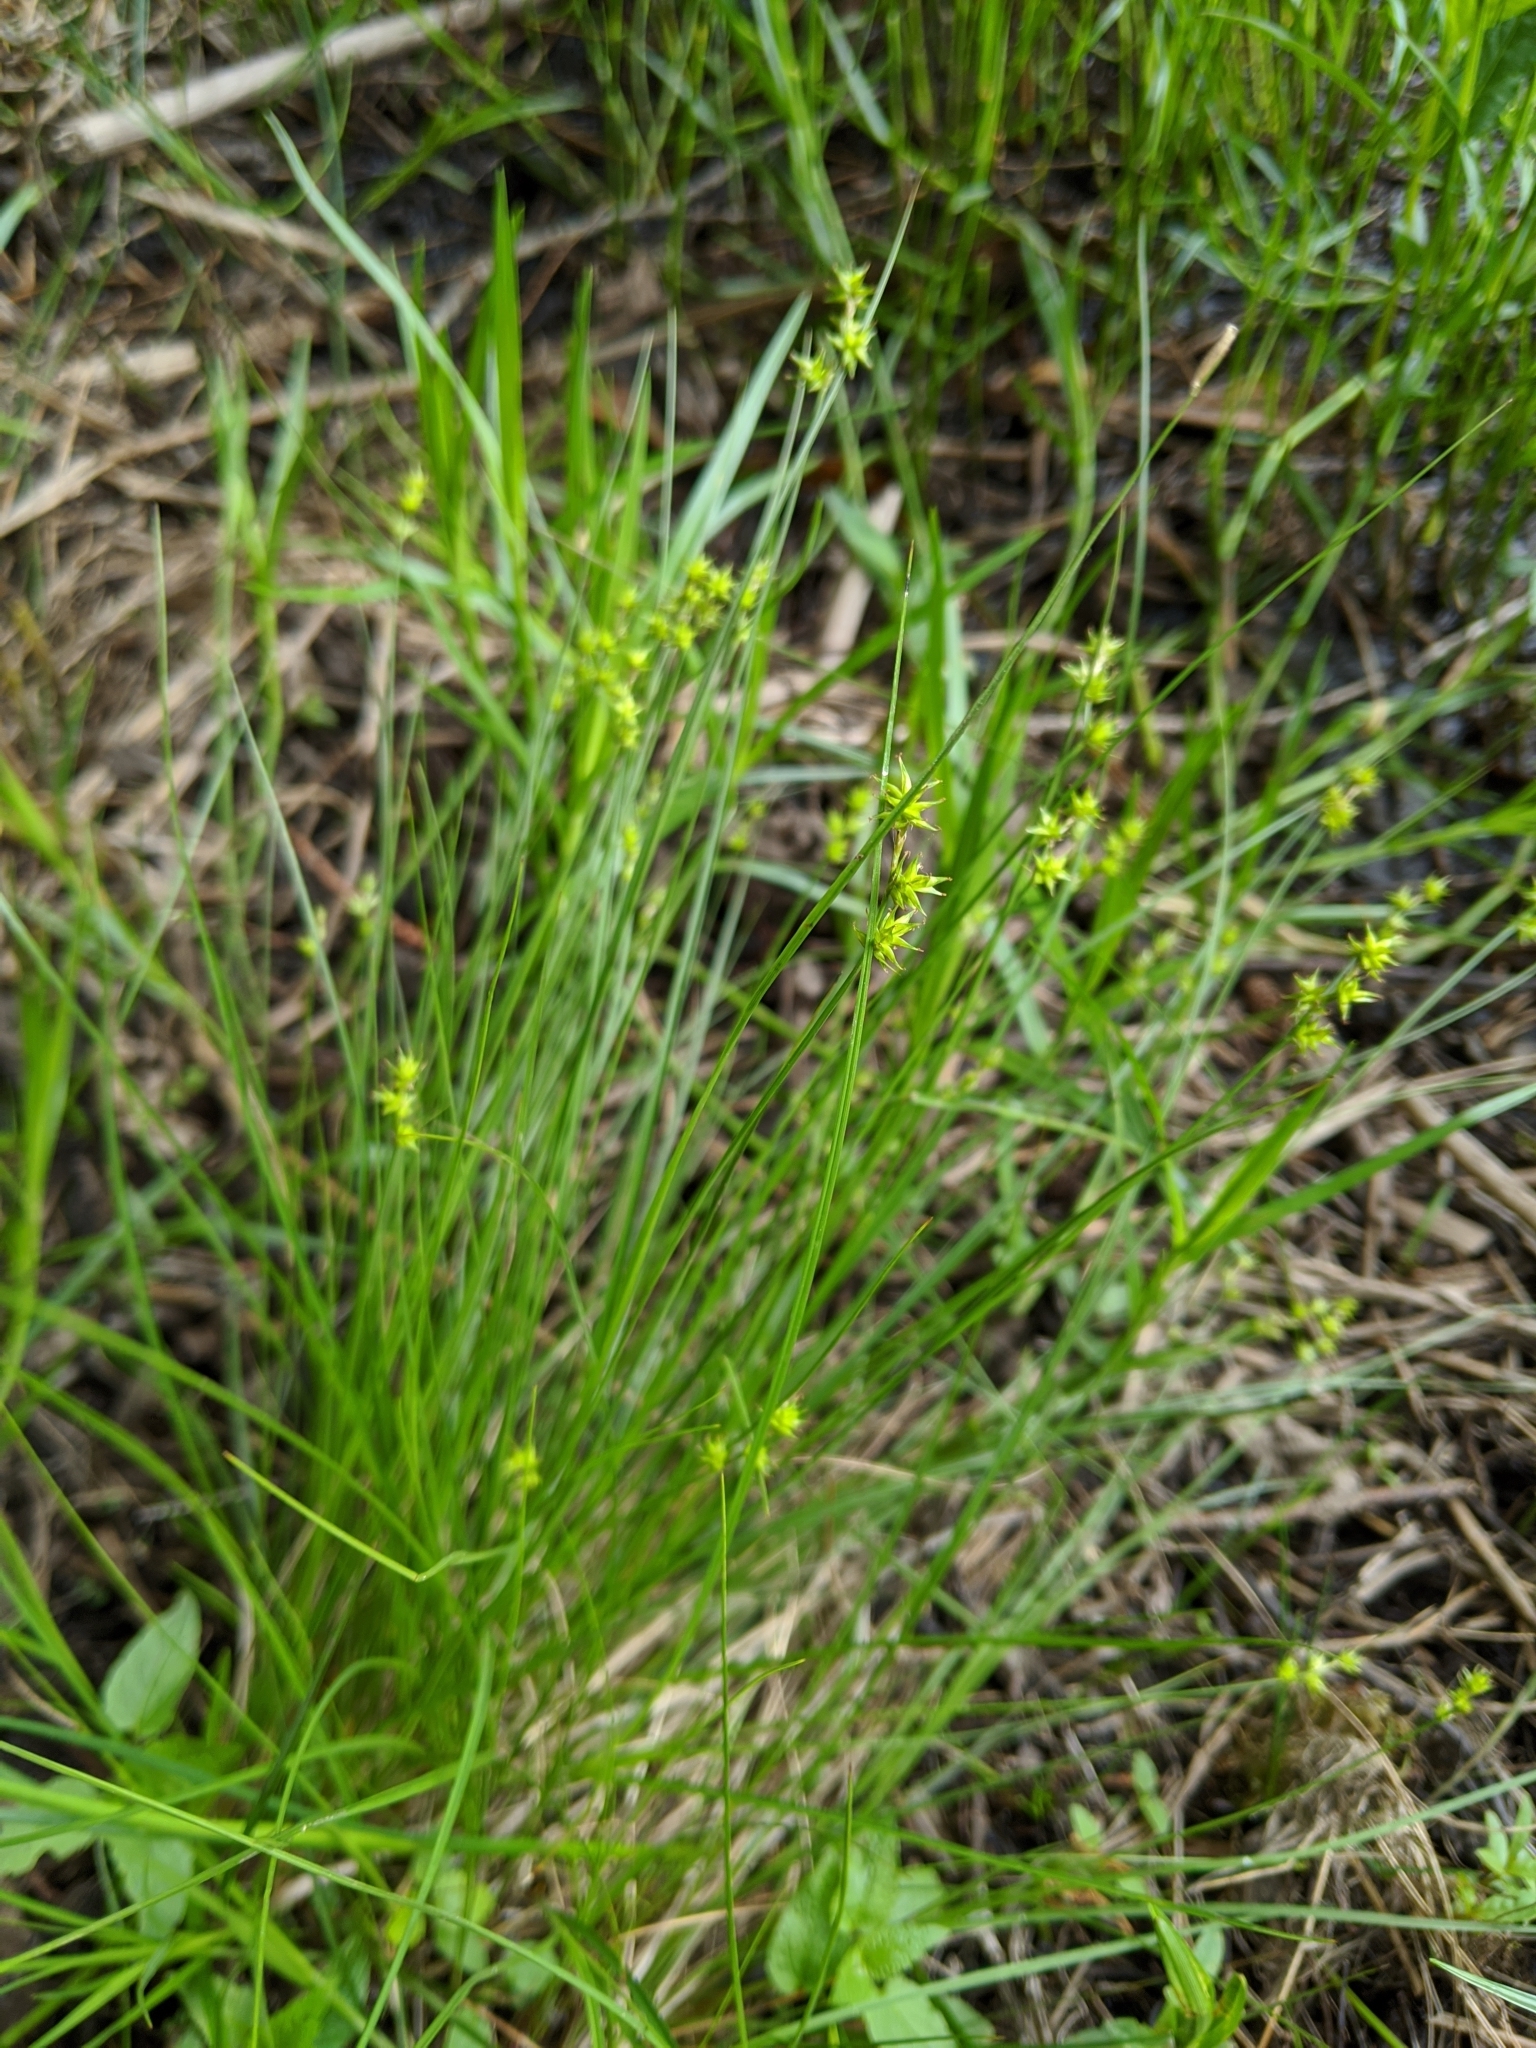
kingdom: Plantae
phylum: Tracheophyta
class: Liliopsida
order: Poales
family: Cyperaceae
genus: Carex
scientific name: Carex echinata
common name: Star sedge
